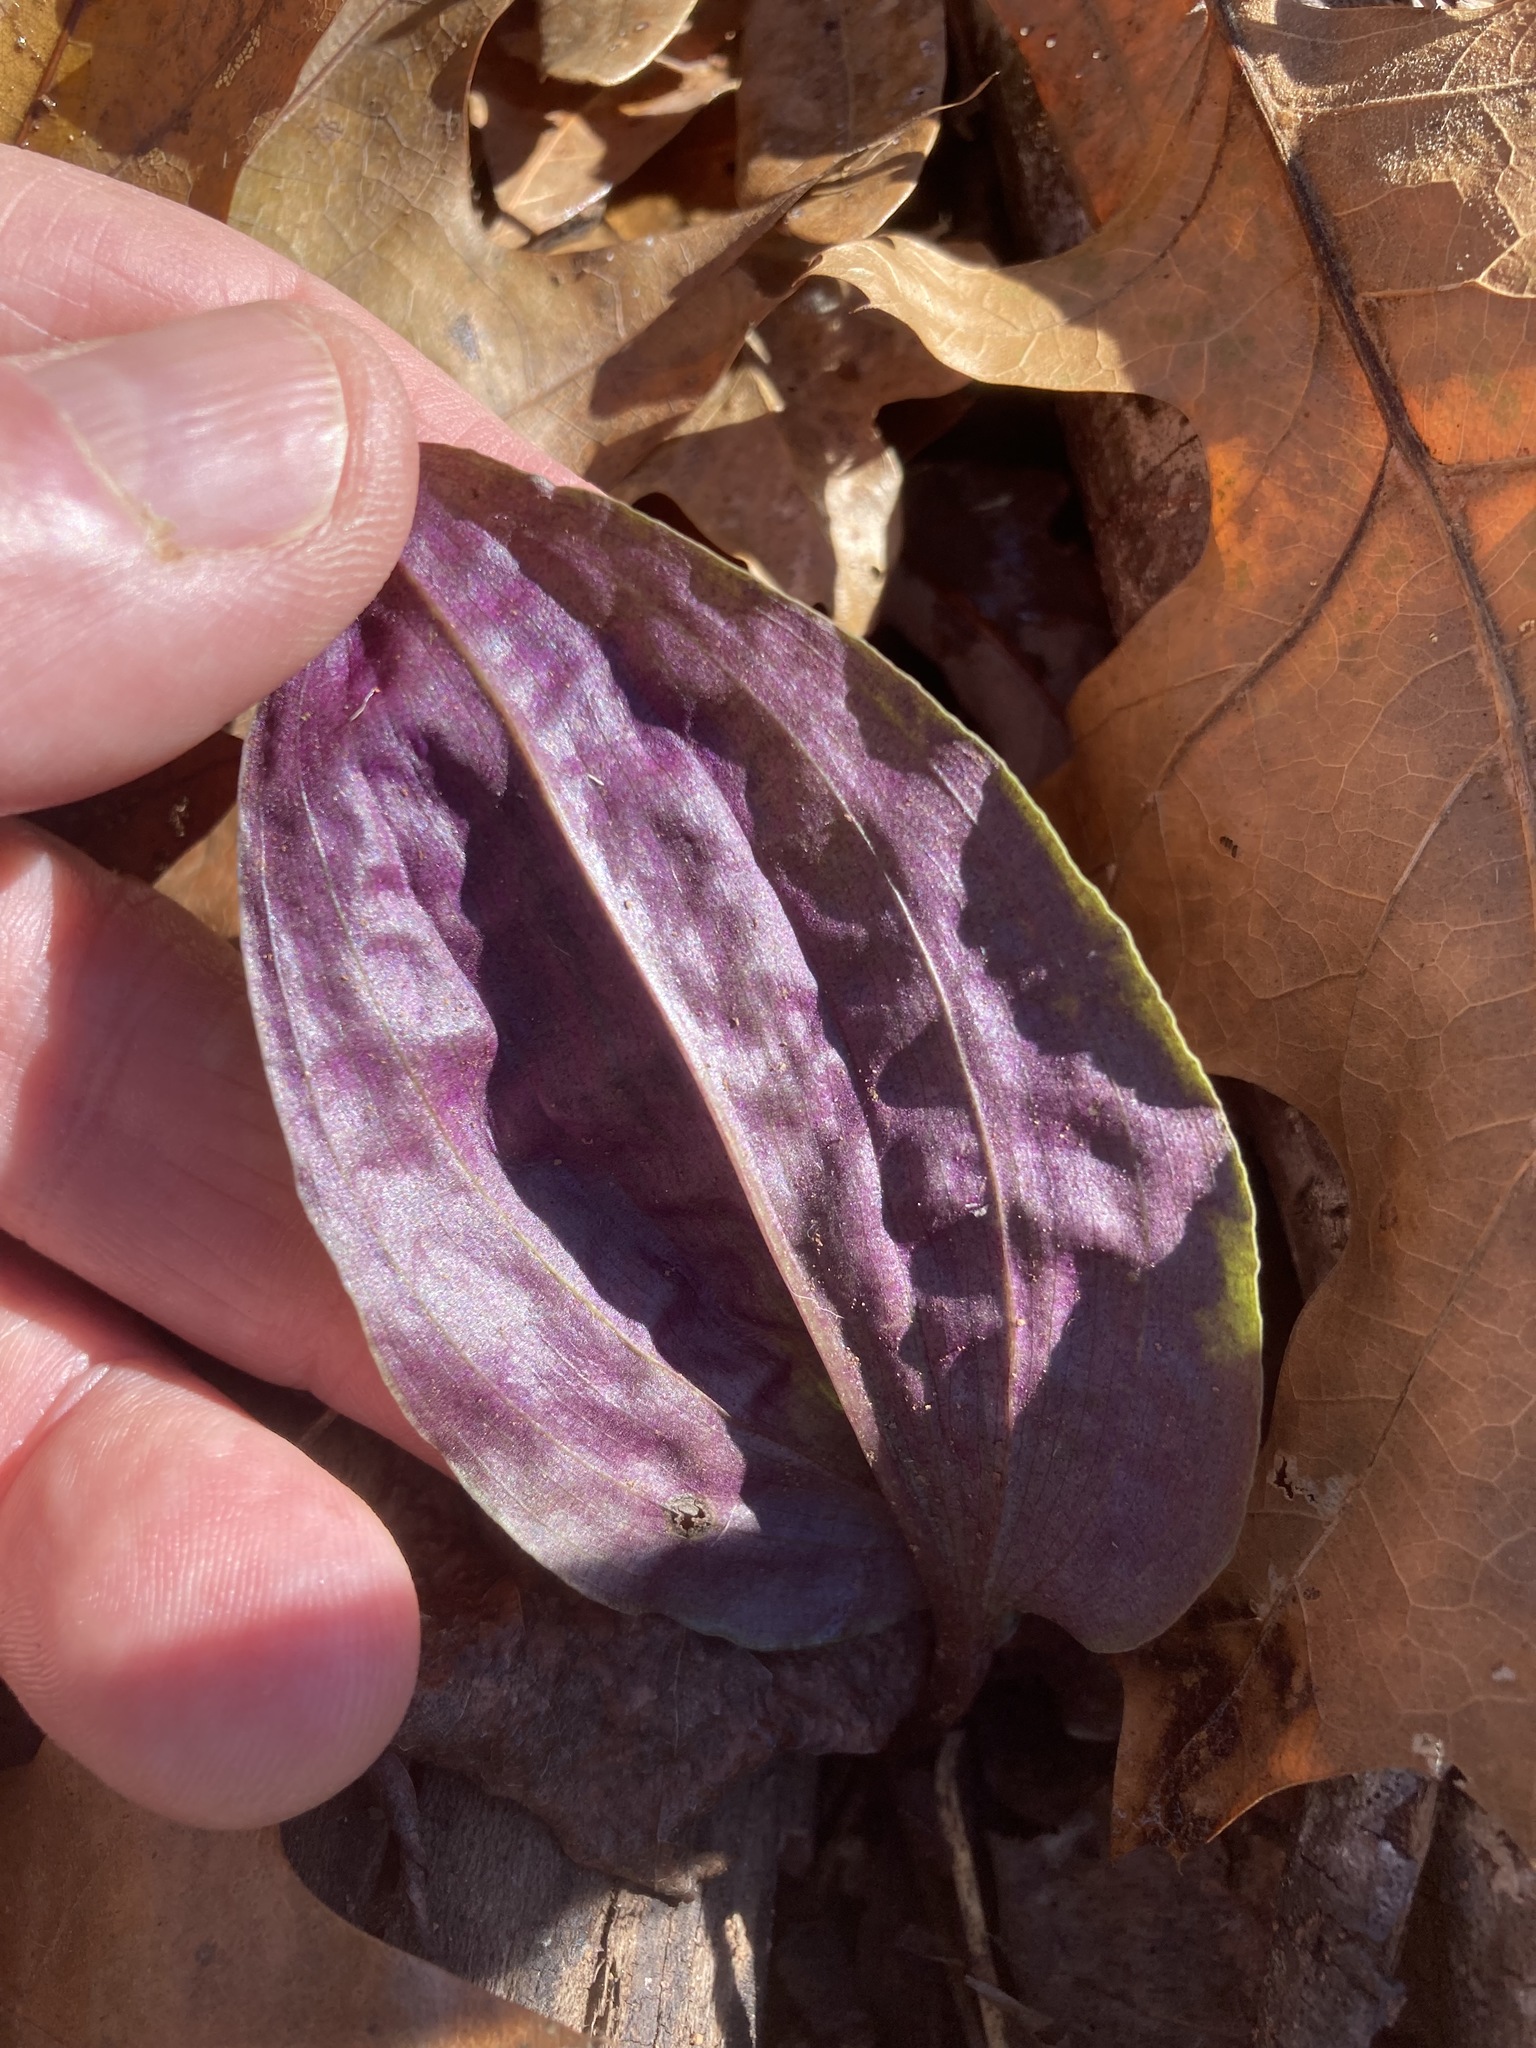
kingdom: Plantae
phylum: Tracheophyta
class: Liliopsida
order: Asparagales
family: Orchidaceae
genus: Tipularia
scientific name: Tipularia discolor
